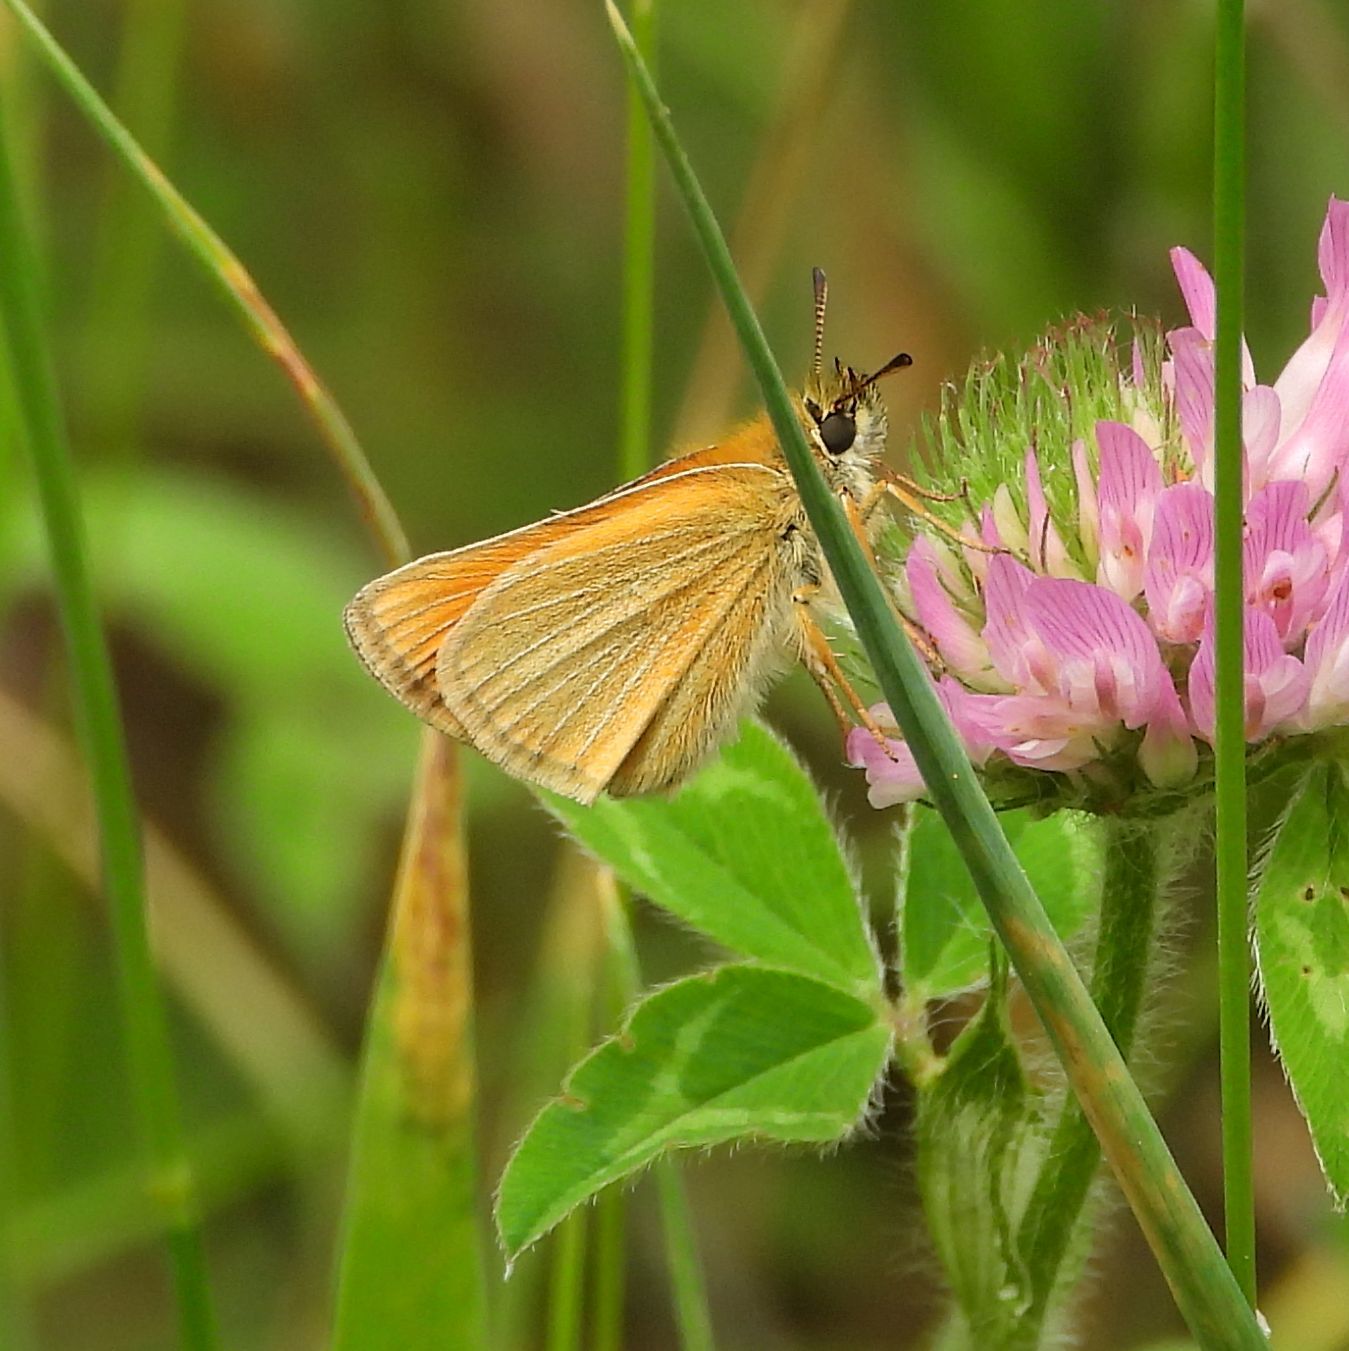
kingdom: Animalia
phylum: Arthropoda
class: Insecta
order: Lepidoptera
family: Hesperiidae
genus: Thymelicus
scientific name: Thymelicus lineola
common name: Essex skipper
